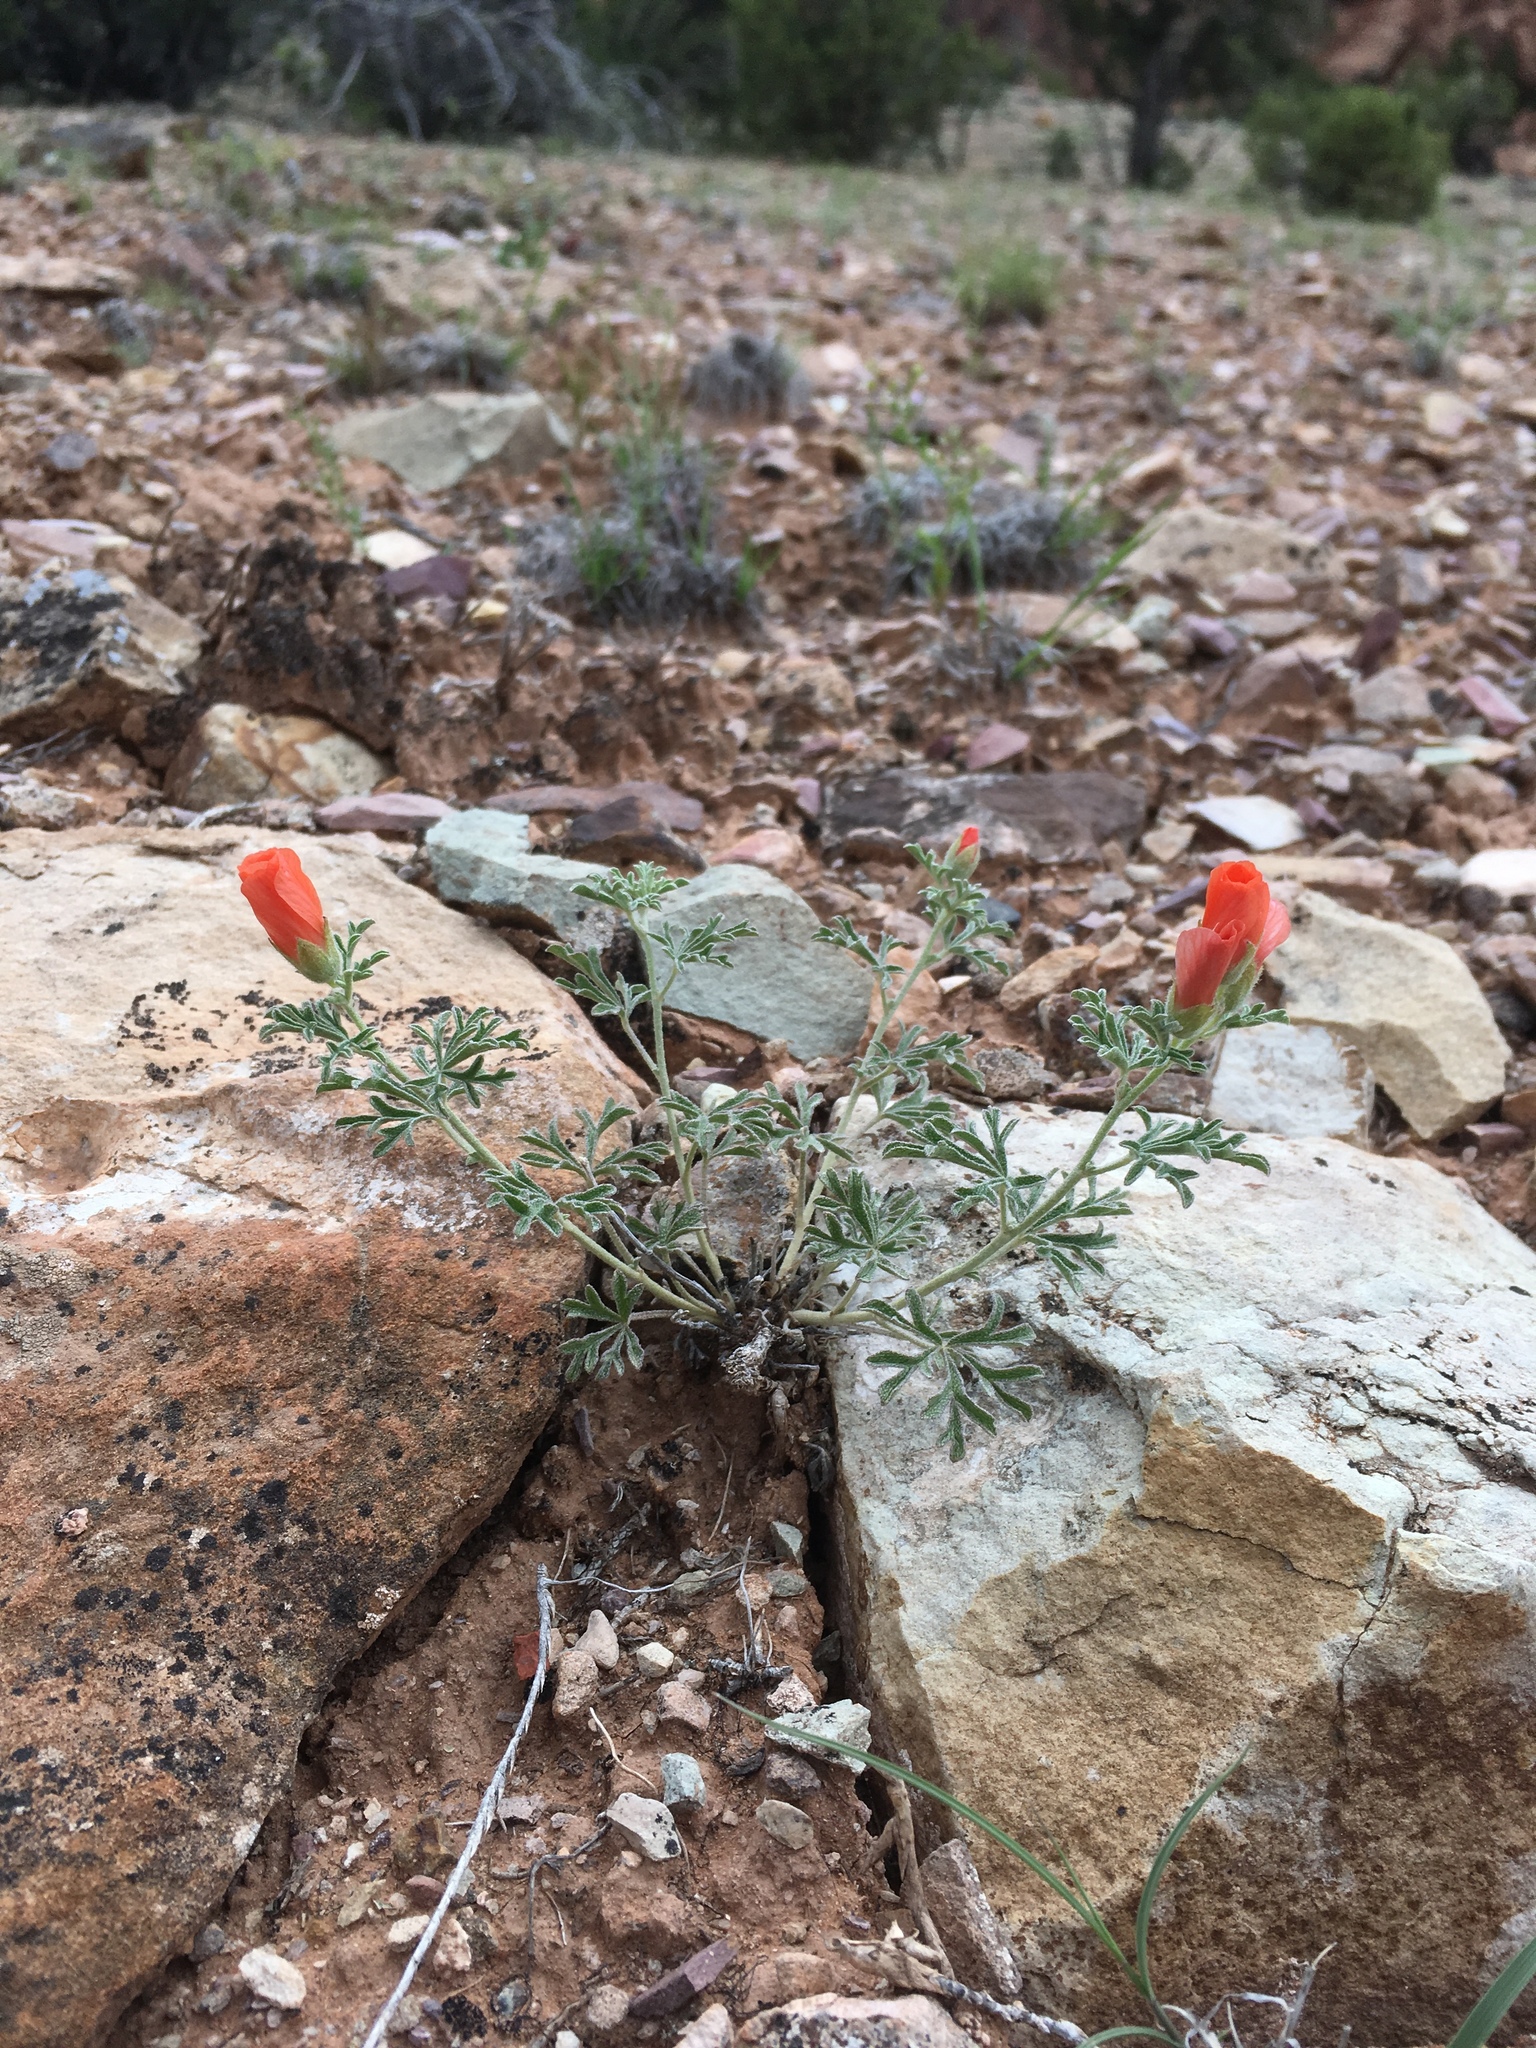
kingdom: Plantae
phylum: Tracheophyta
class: Magnoliopsida
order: Malvales
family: Malvaceae
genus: Sphaeralcea
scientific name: Sphaeralcea coccinea
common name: Moss-rose
